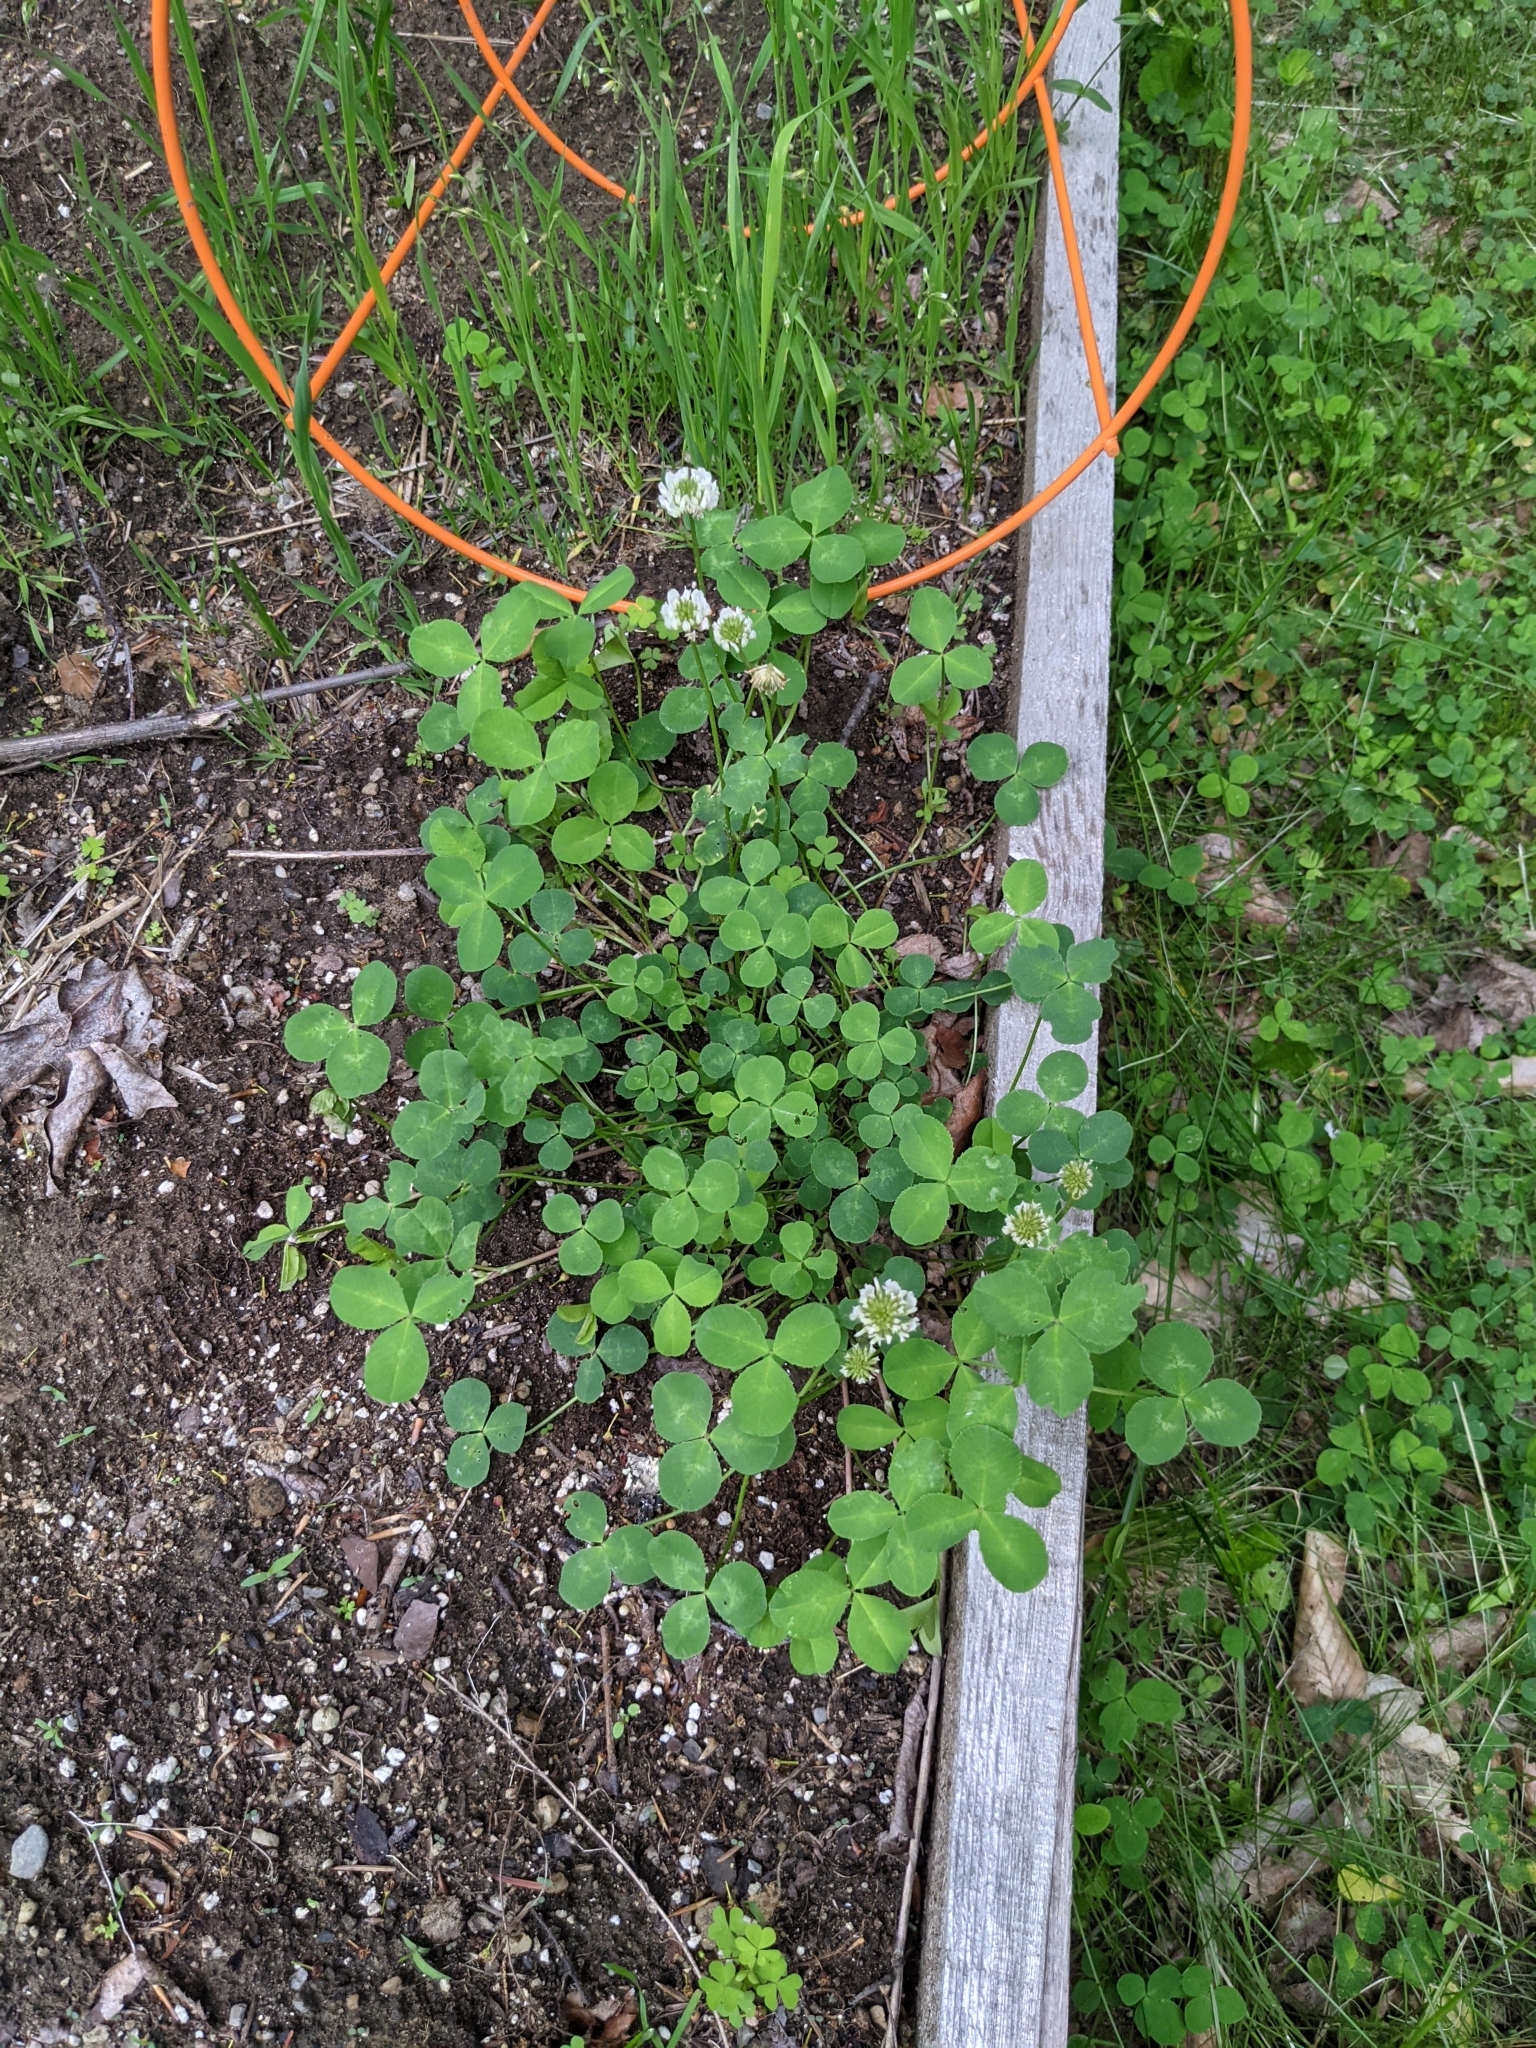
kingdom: Plantae
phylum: Tracheophyta
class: Magnoliopsida
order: Fabales
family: Fabaceae
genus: Trifolium
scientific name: Trifolium repens
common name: White clover
